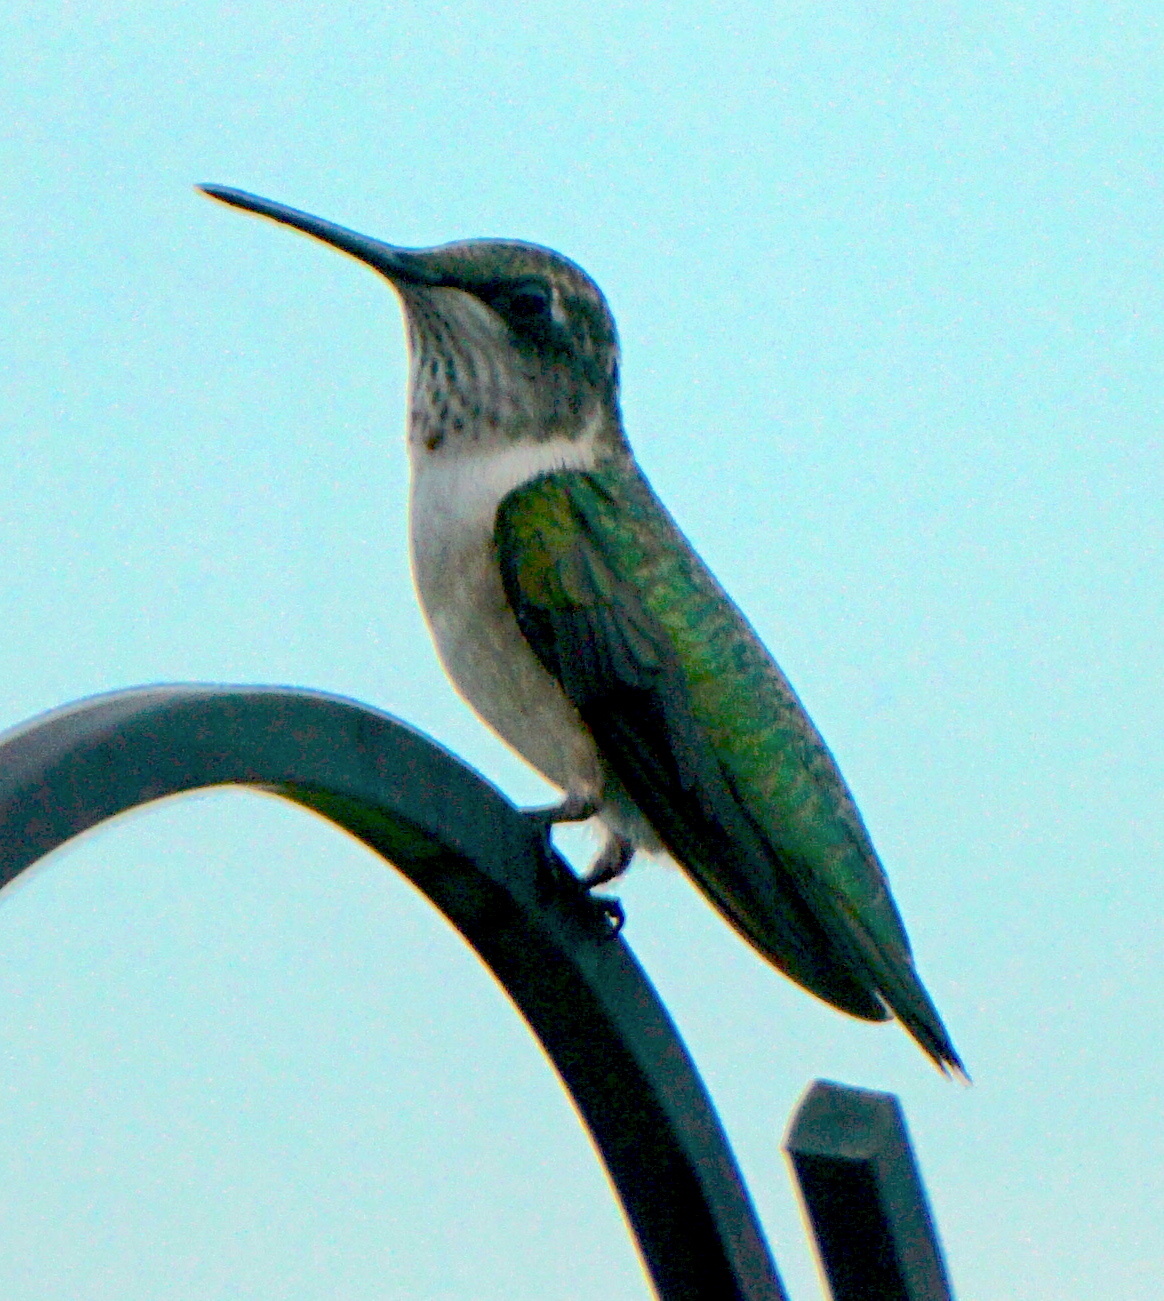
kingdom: Animalia
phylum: Chordata
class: Aves
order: Apodiformes
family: Trochilidae
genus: Archilochus
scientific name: Archilochus colubris
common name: Ruby-throated hummingbird
